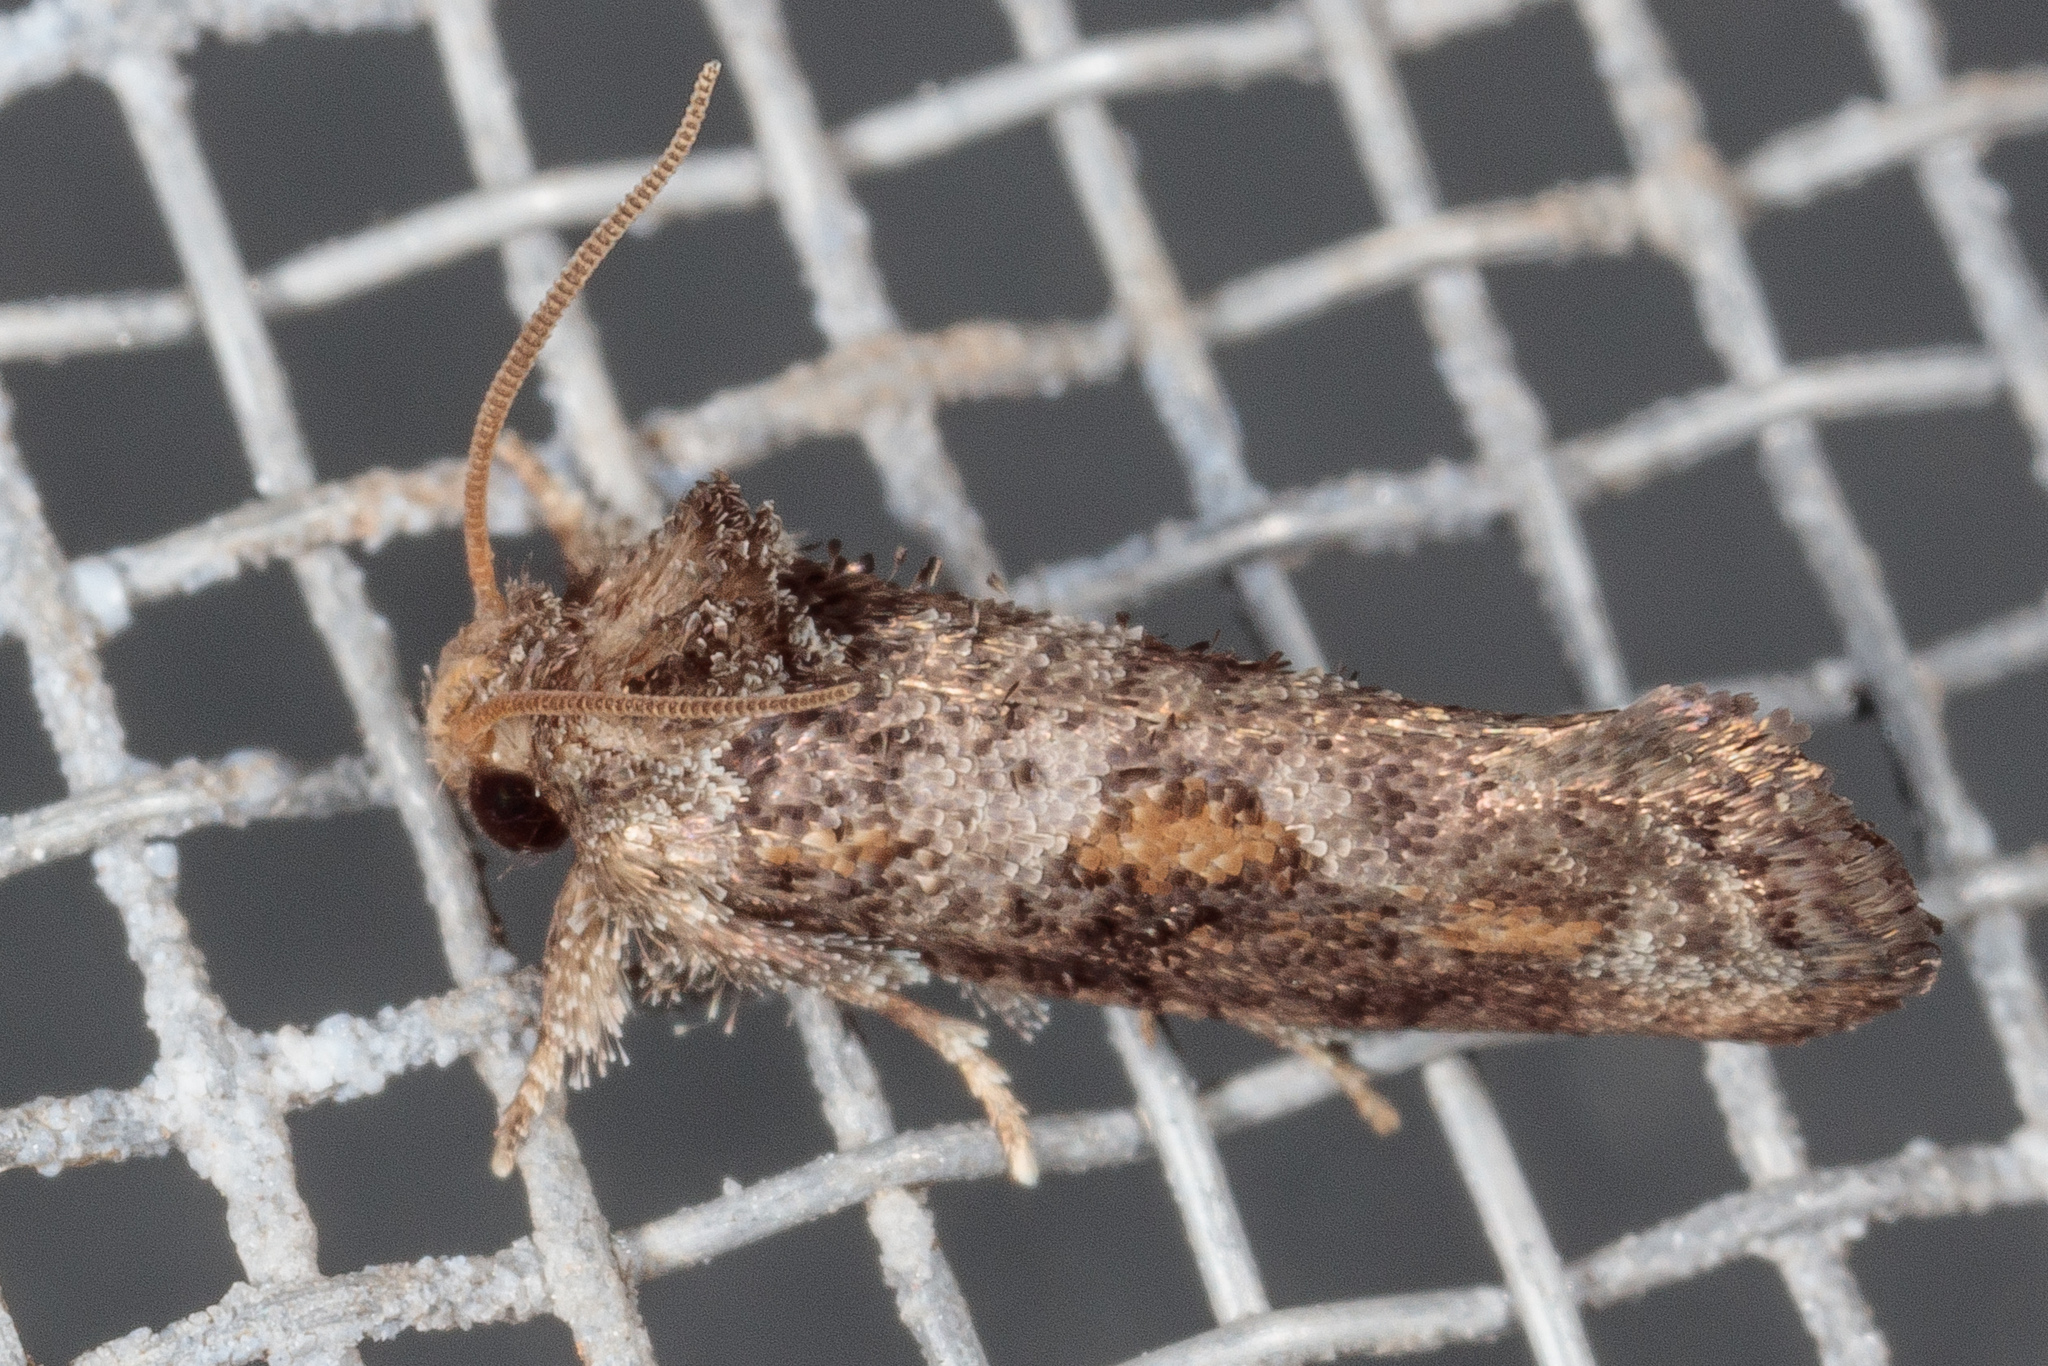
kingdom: Animalia
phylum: Arthropoda
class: Insecta
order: Lepidoptera
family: Tineidae
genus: Acrolophus
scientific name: Acrolophus piger
